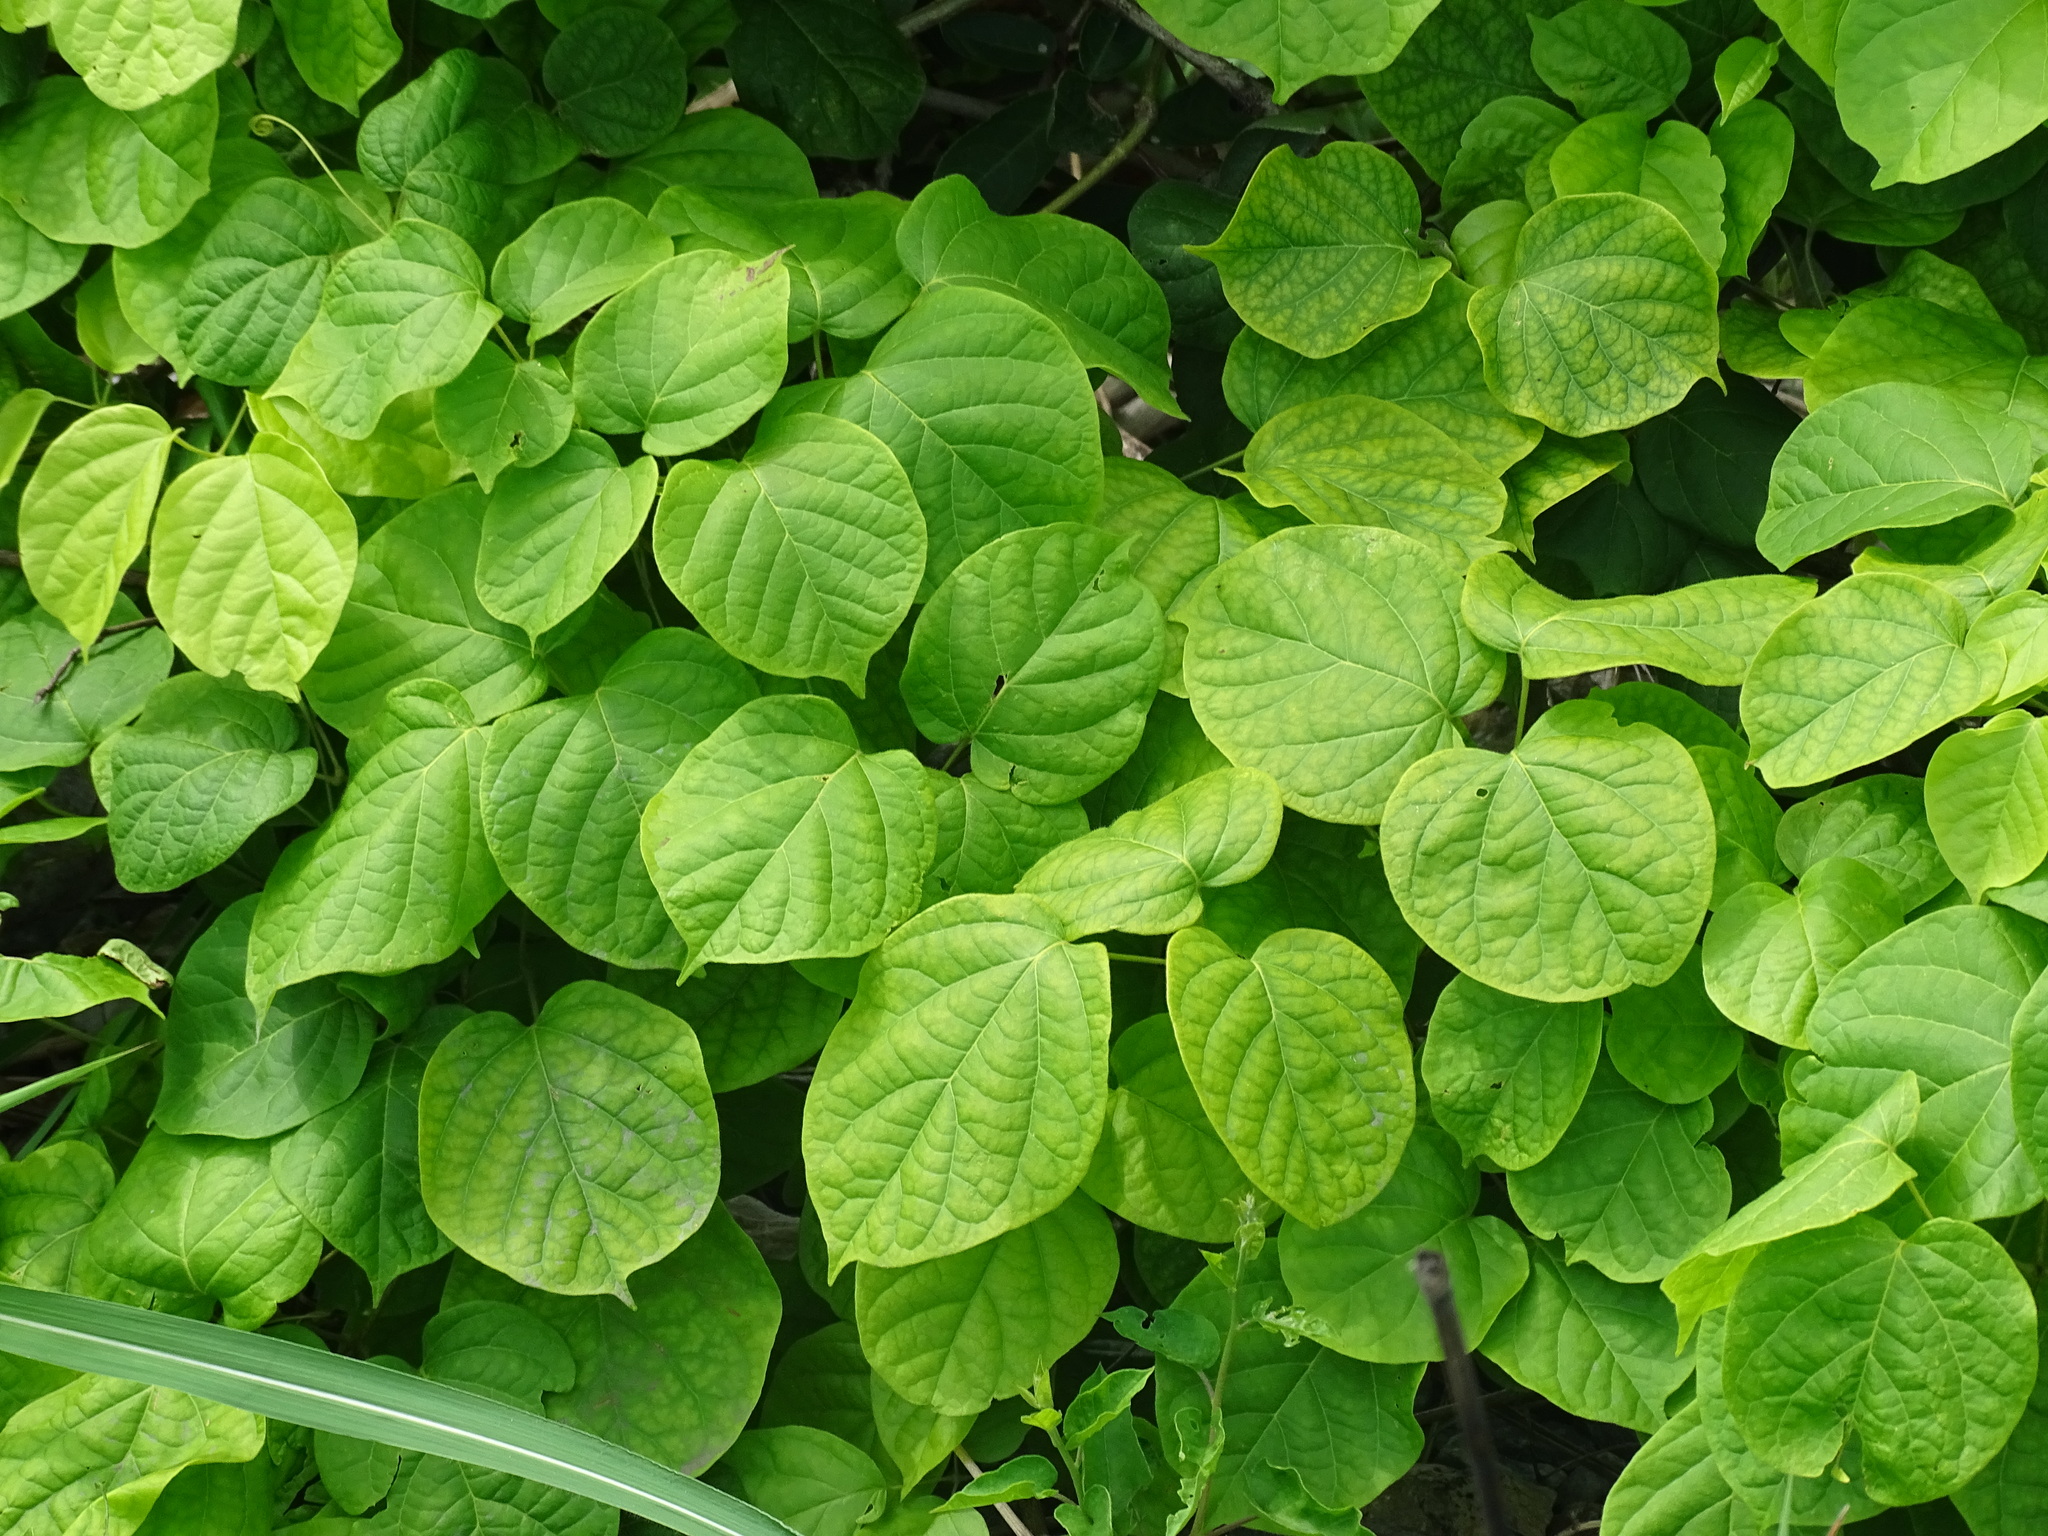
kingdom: Plantae
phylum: Tracheophyta
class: Magnoliopsida
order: Lamiales
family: Bignoniaceae
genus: Amphilophium
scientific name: Amphilophium crucigerum
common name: Monkey comb
